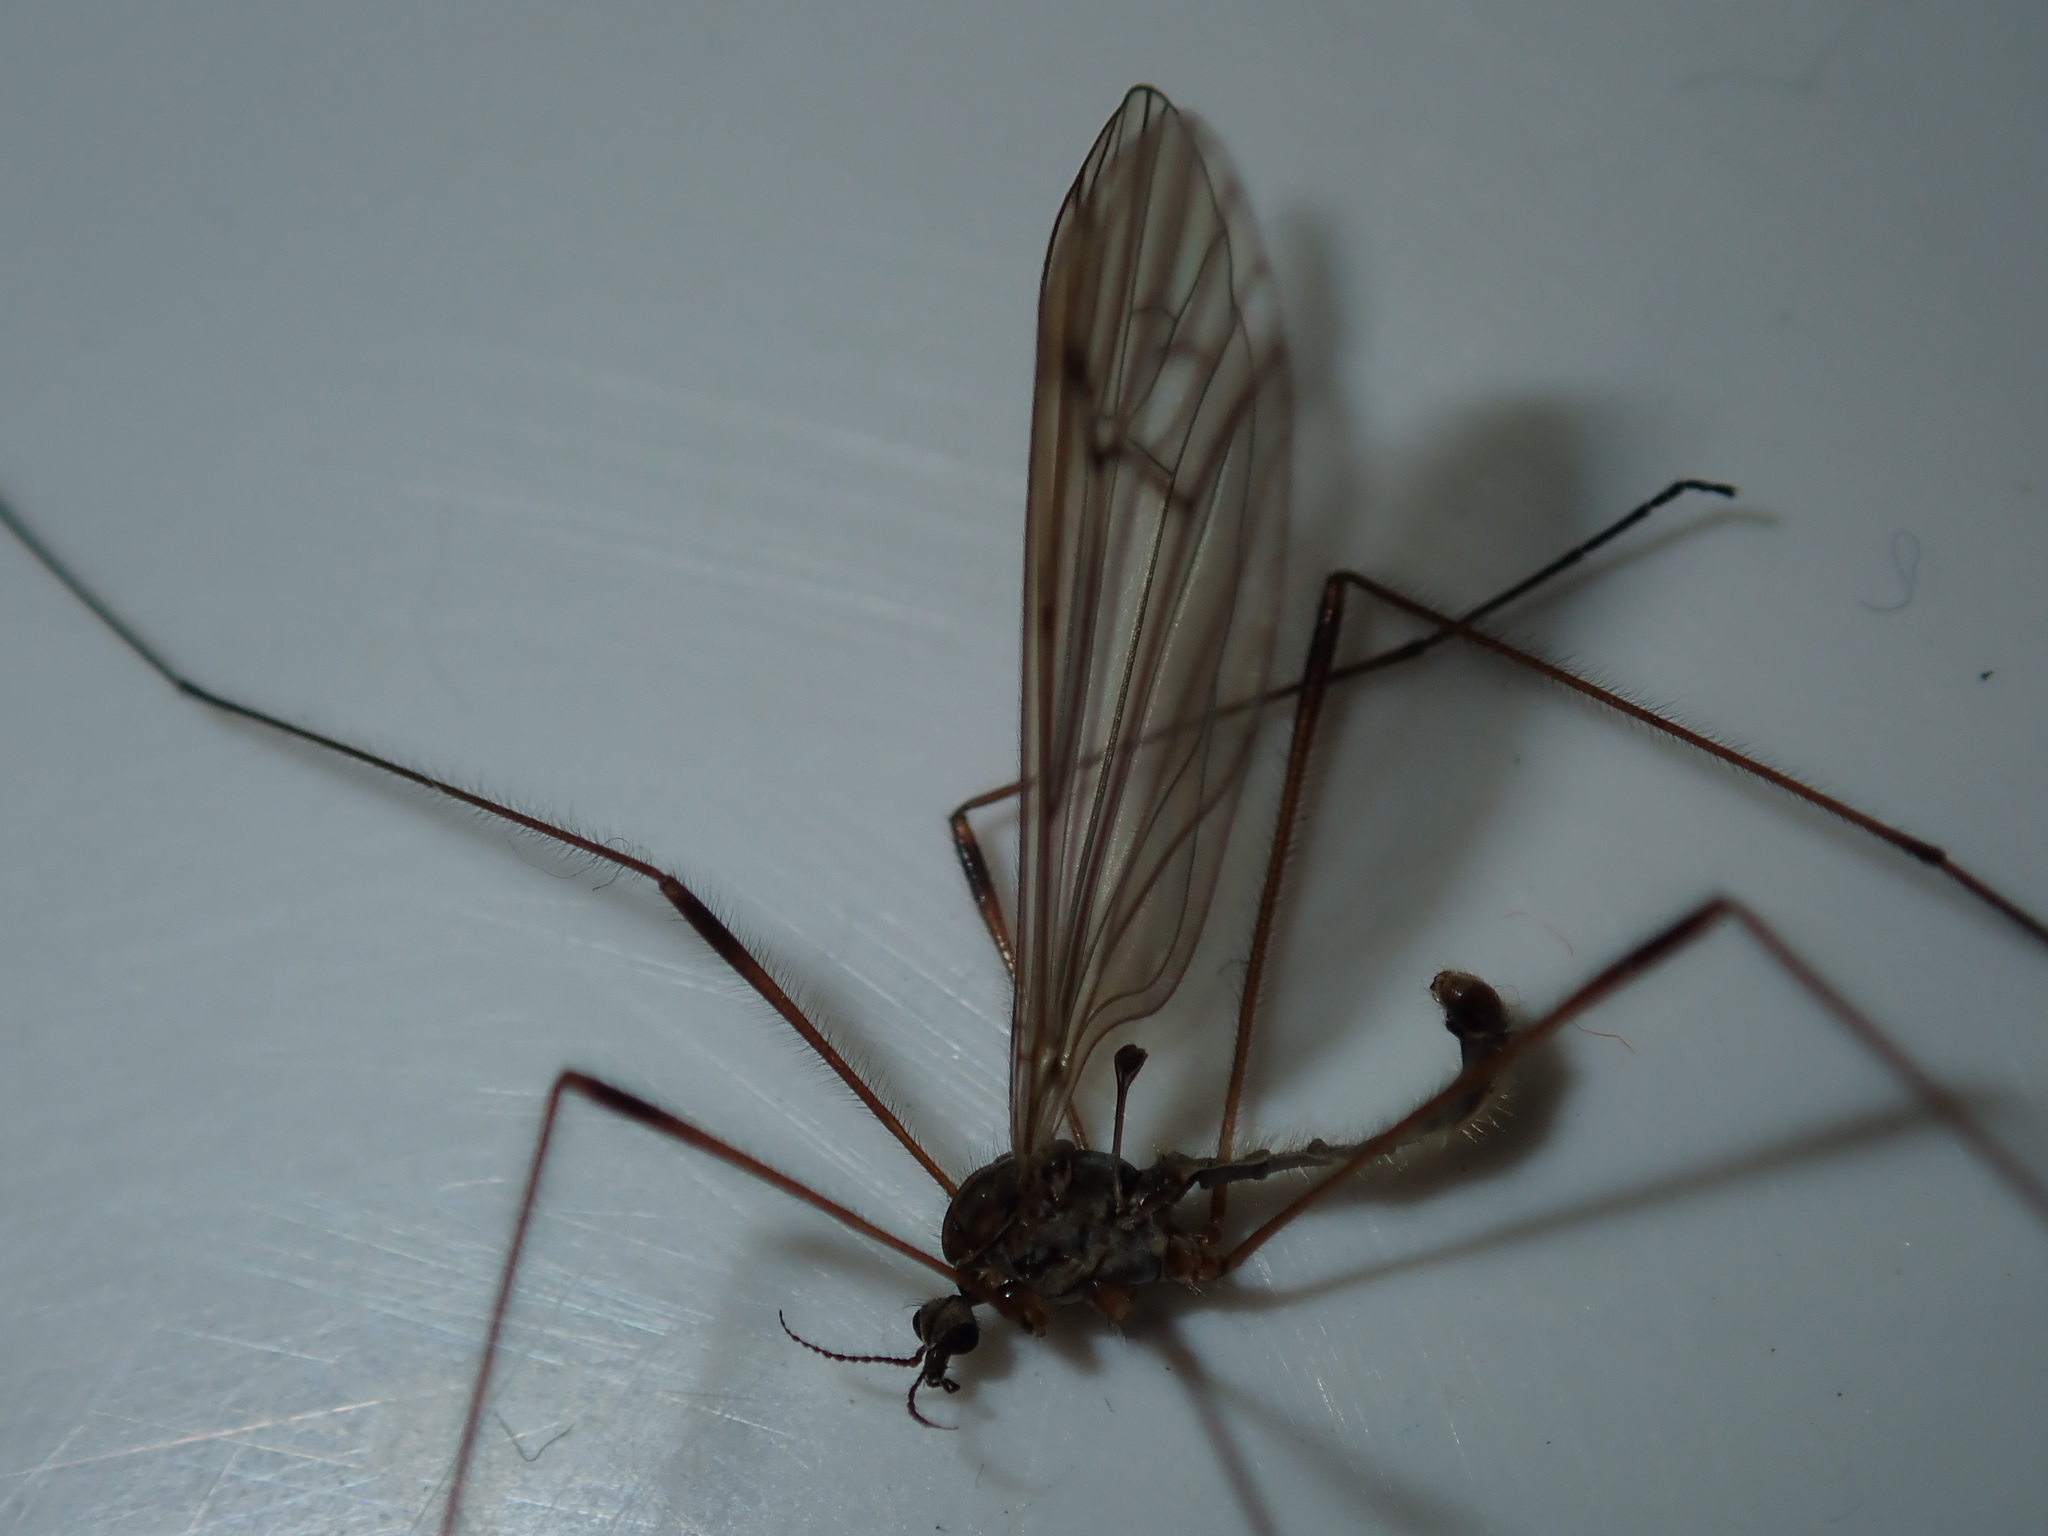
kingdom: Animalia
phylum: Arthropoda
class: Insecta
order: Diptera
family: Limoniidae
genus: Symplecta
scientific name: Symplecta pilipes
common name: Crane fly
